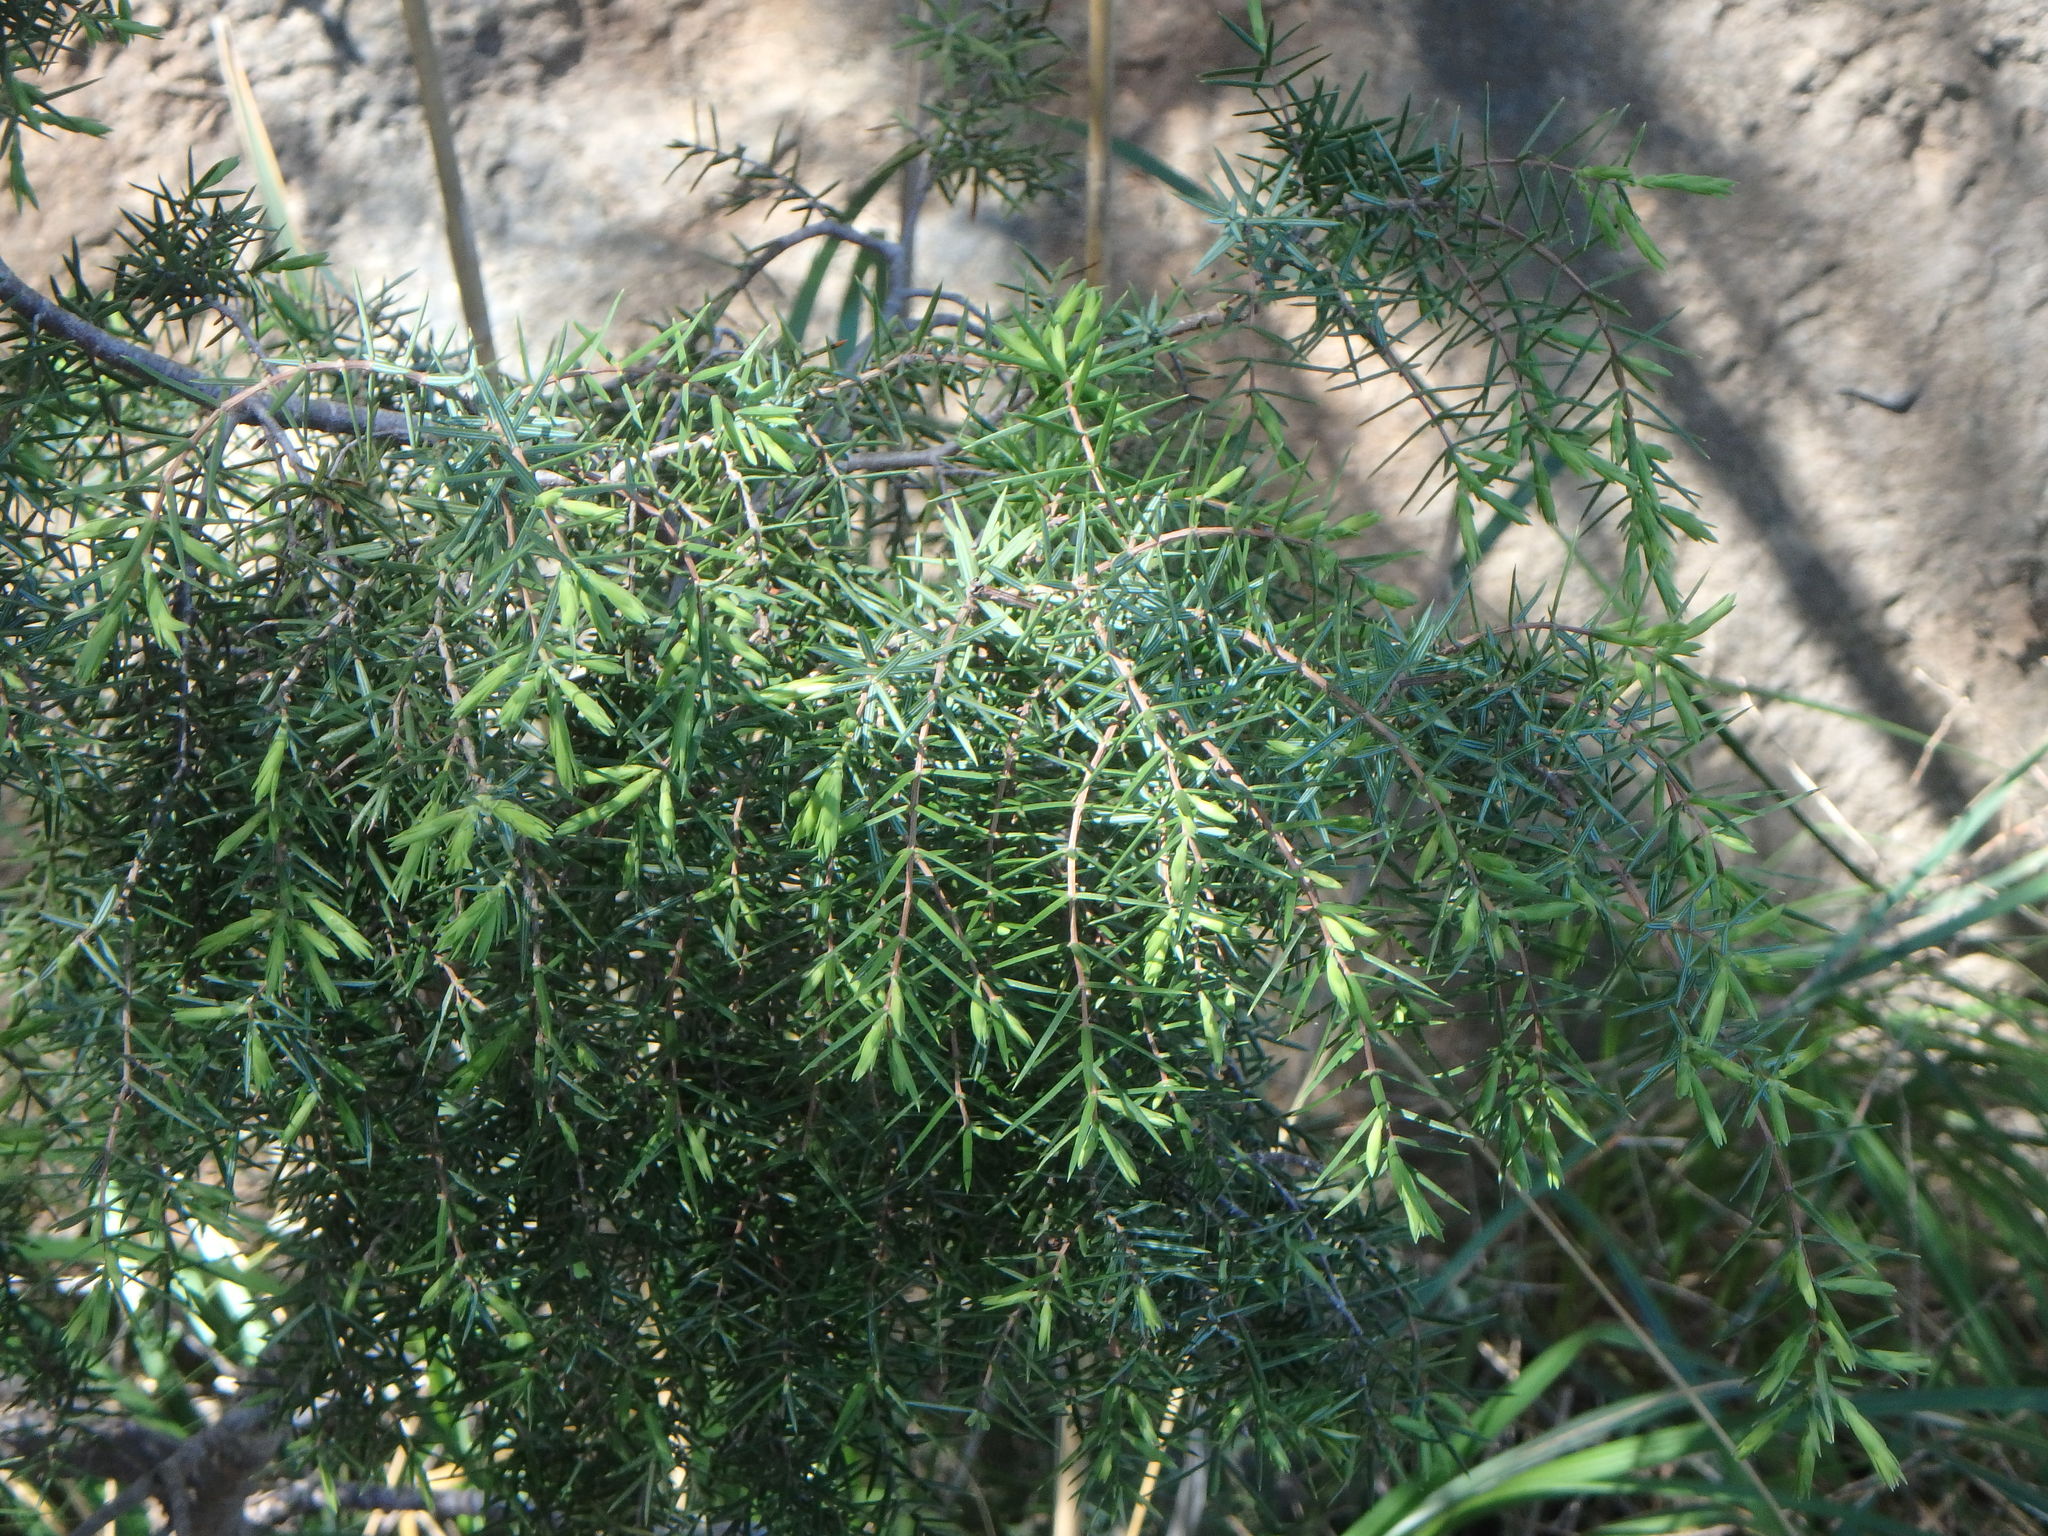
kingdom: Plantae
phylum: Tracheophyta
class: Pinopsida
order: Pinales
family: Cupressaceae
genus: Juniperus
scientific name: Juniperus oxycedrus
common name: Prickly juniper
